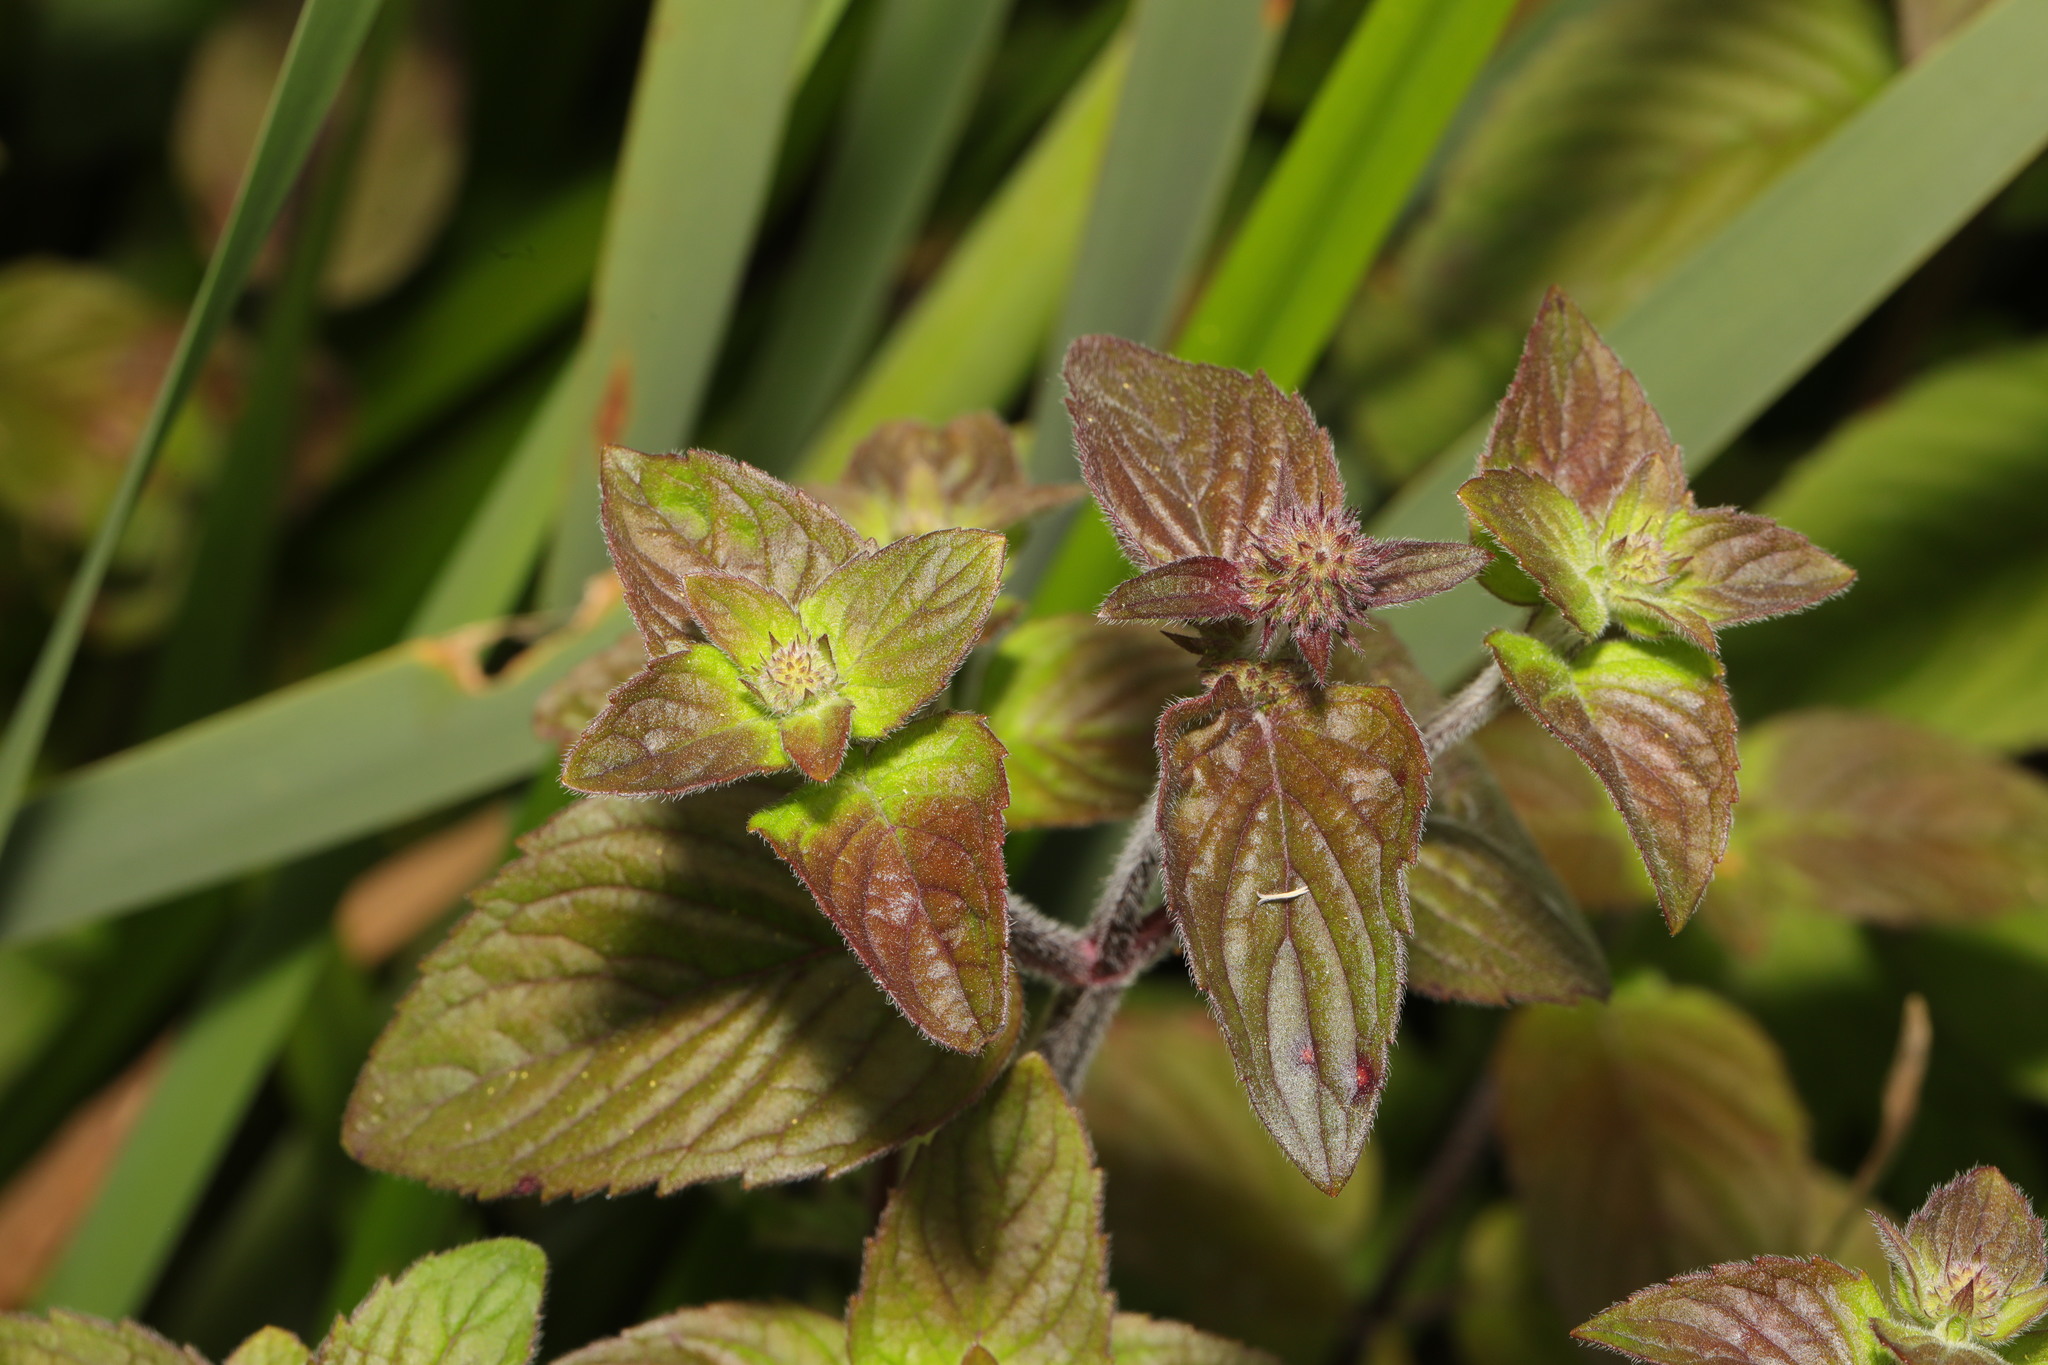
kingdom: Plantae
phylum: Tracheophyta
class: Magnoliopsida
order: Lamiales
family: Lamiaceae
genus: Mentha
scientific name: Mentha aquatica
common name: Water mint
